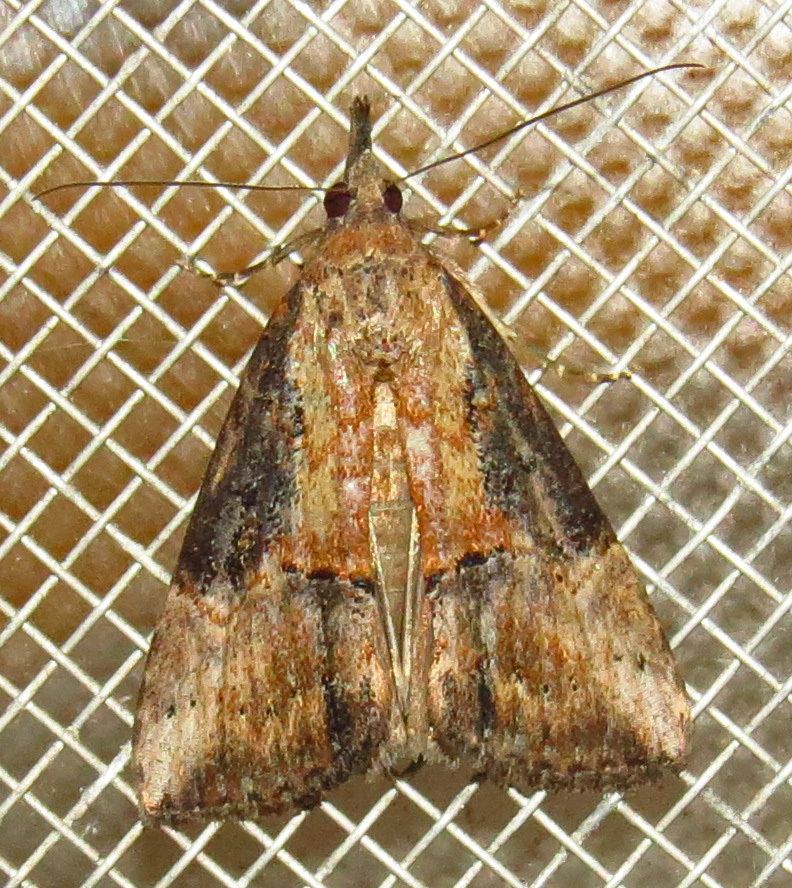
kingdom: Animalia
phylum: Arthropoda
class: Insecta
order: Lepidoptera
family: Erebidae
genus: Hypena
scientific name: Hypena scabra
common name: Green cloverworm
